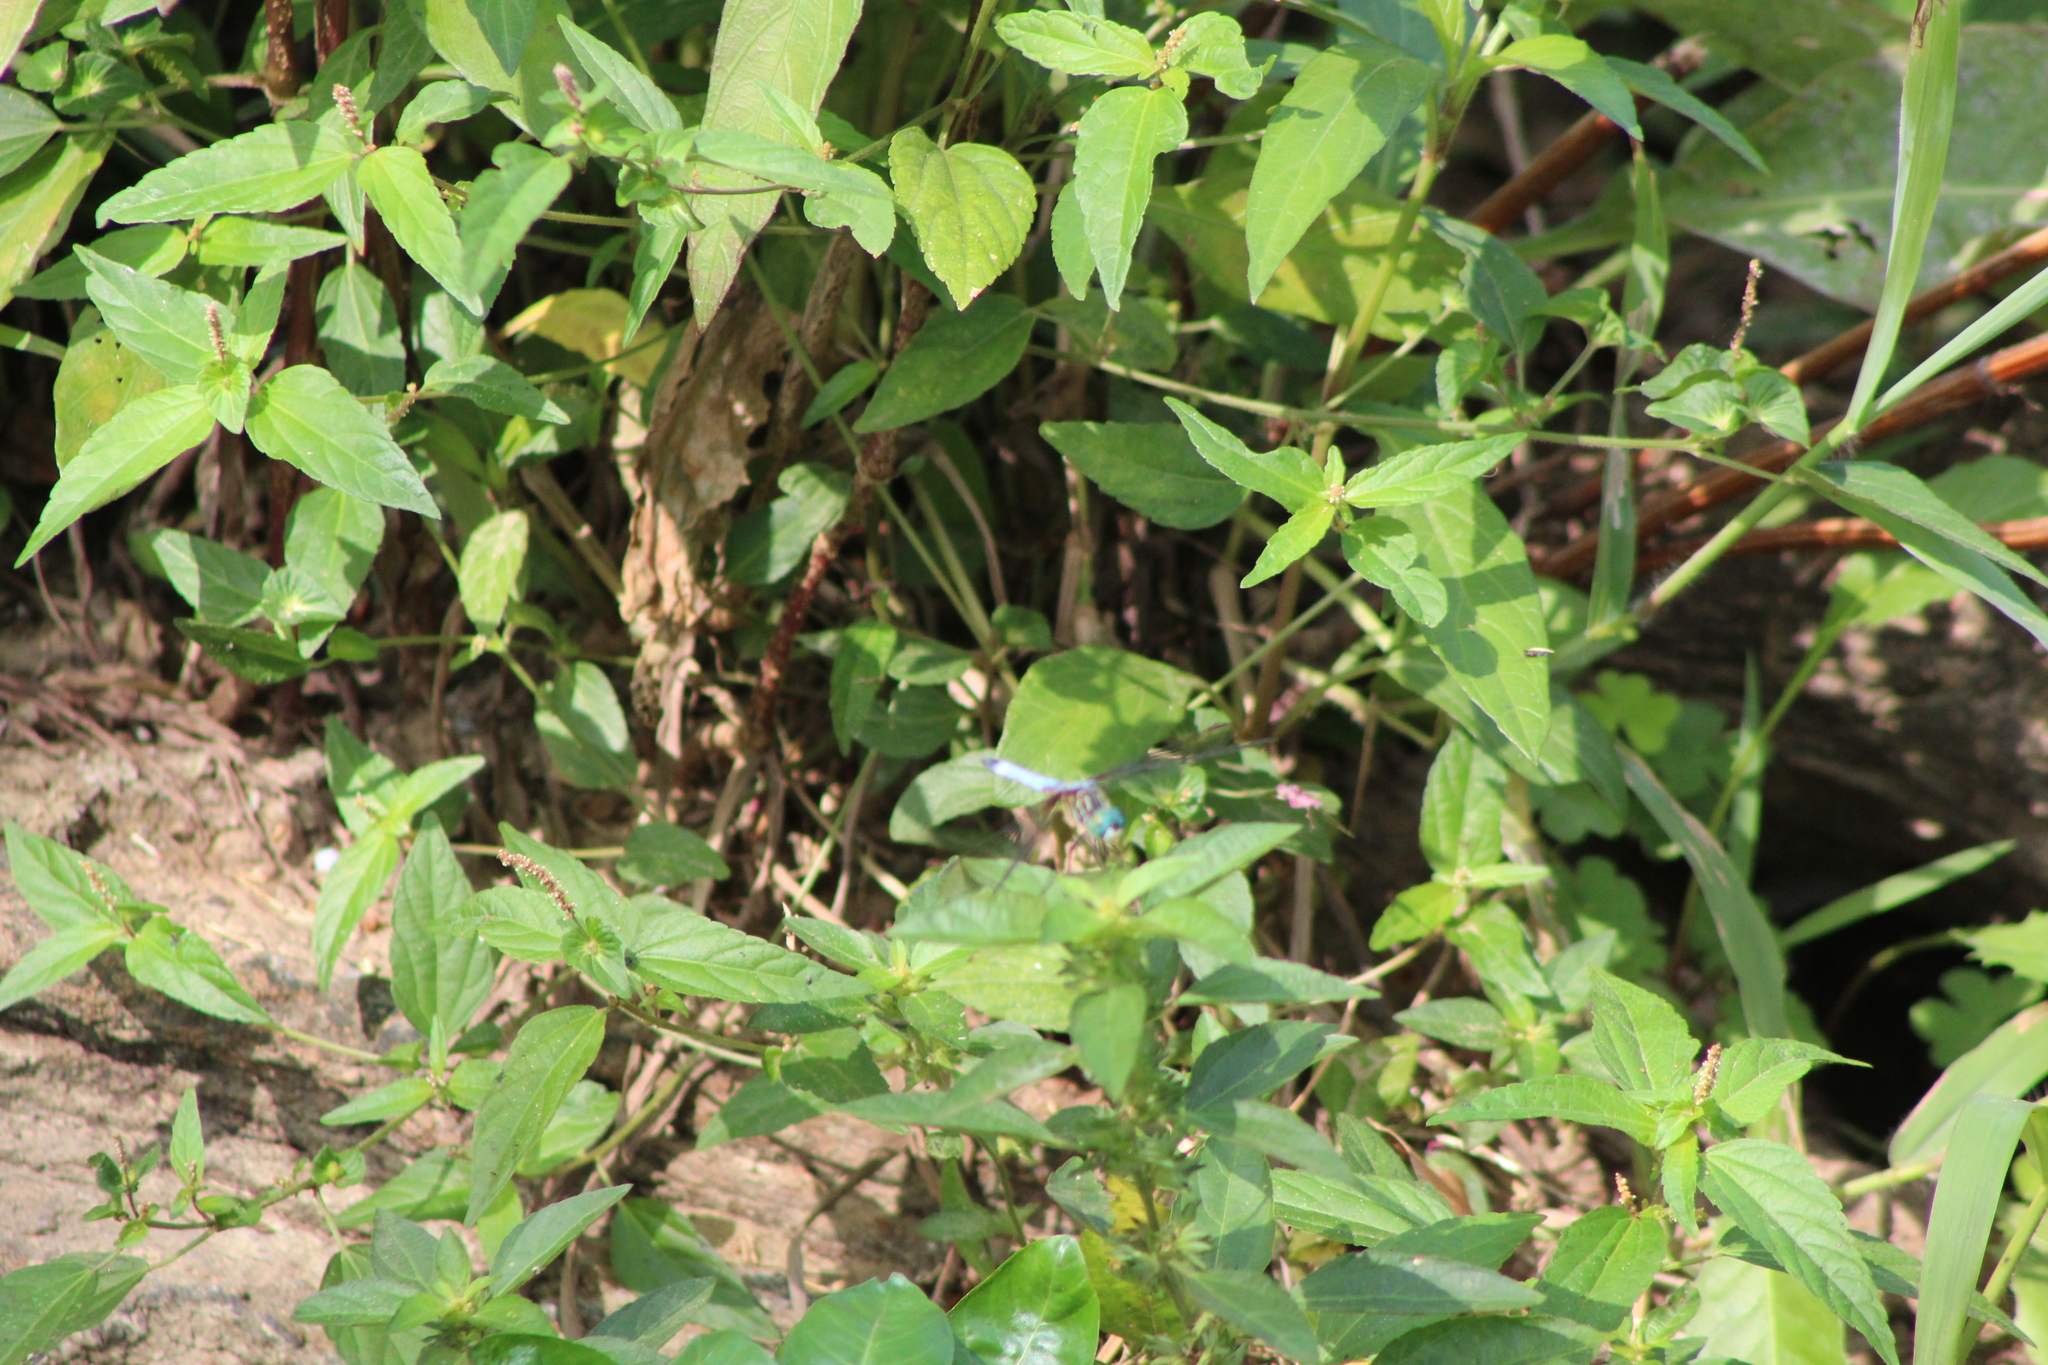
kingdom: Animalia
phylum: Arthropoda
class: Insecta
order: Odonata
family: Libellulidae
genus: Pachydiplax
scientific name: Pachydiplax longipennis
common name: Blue dasher
